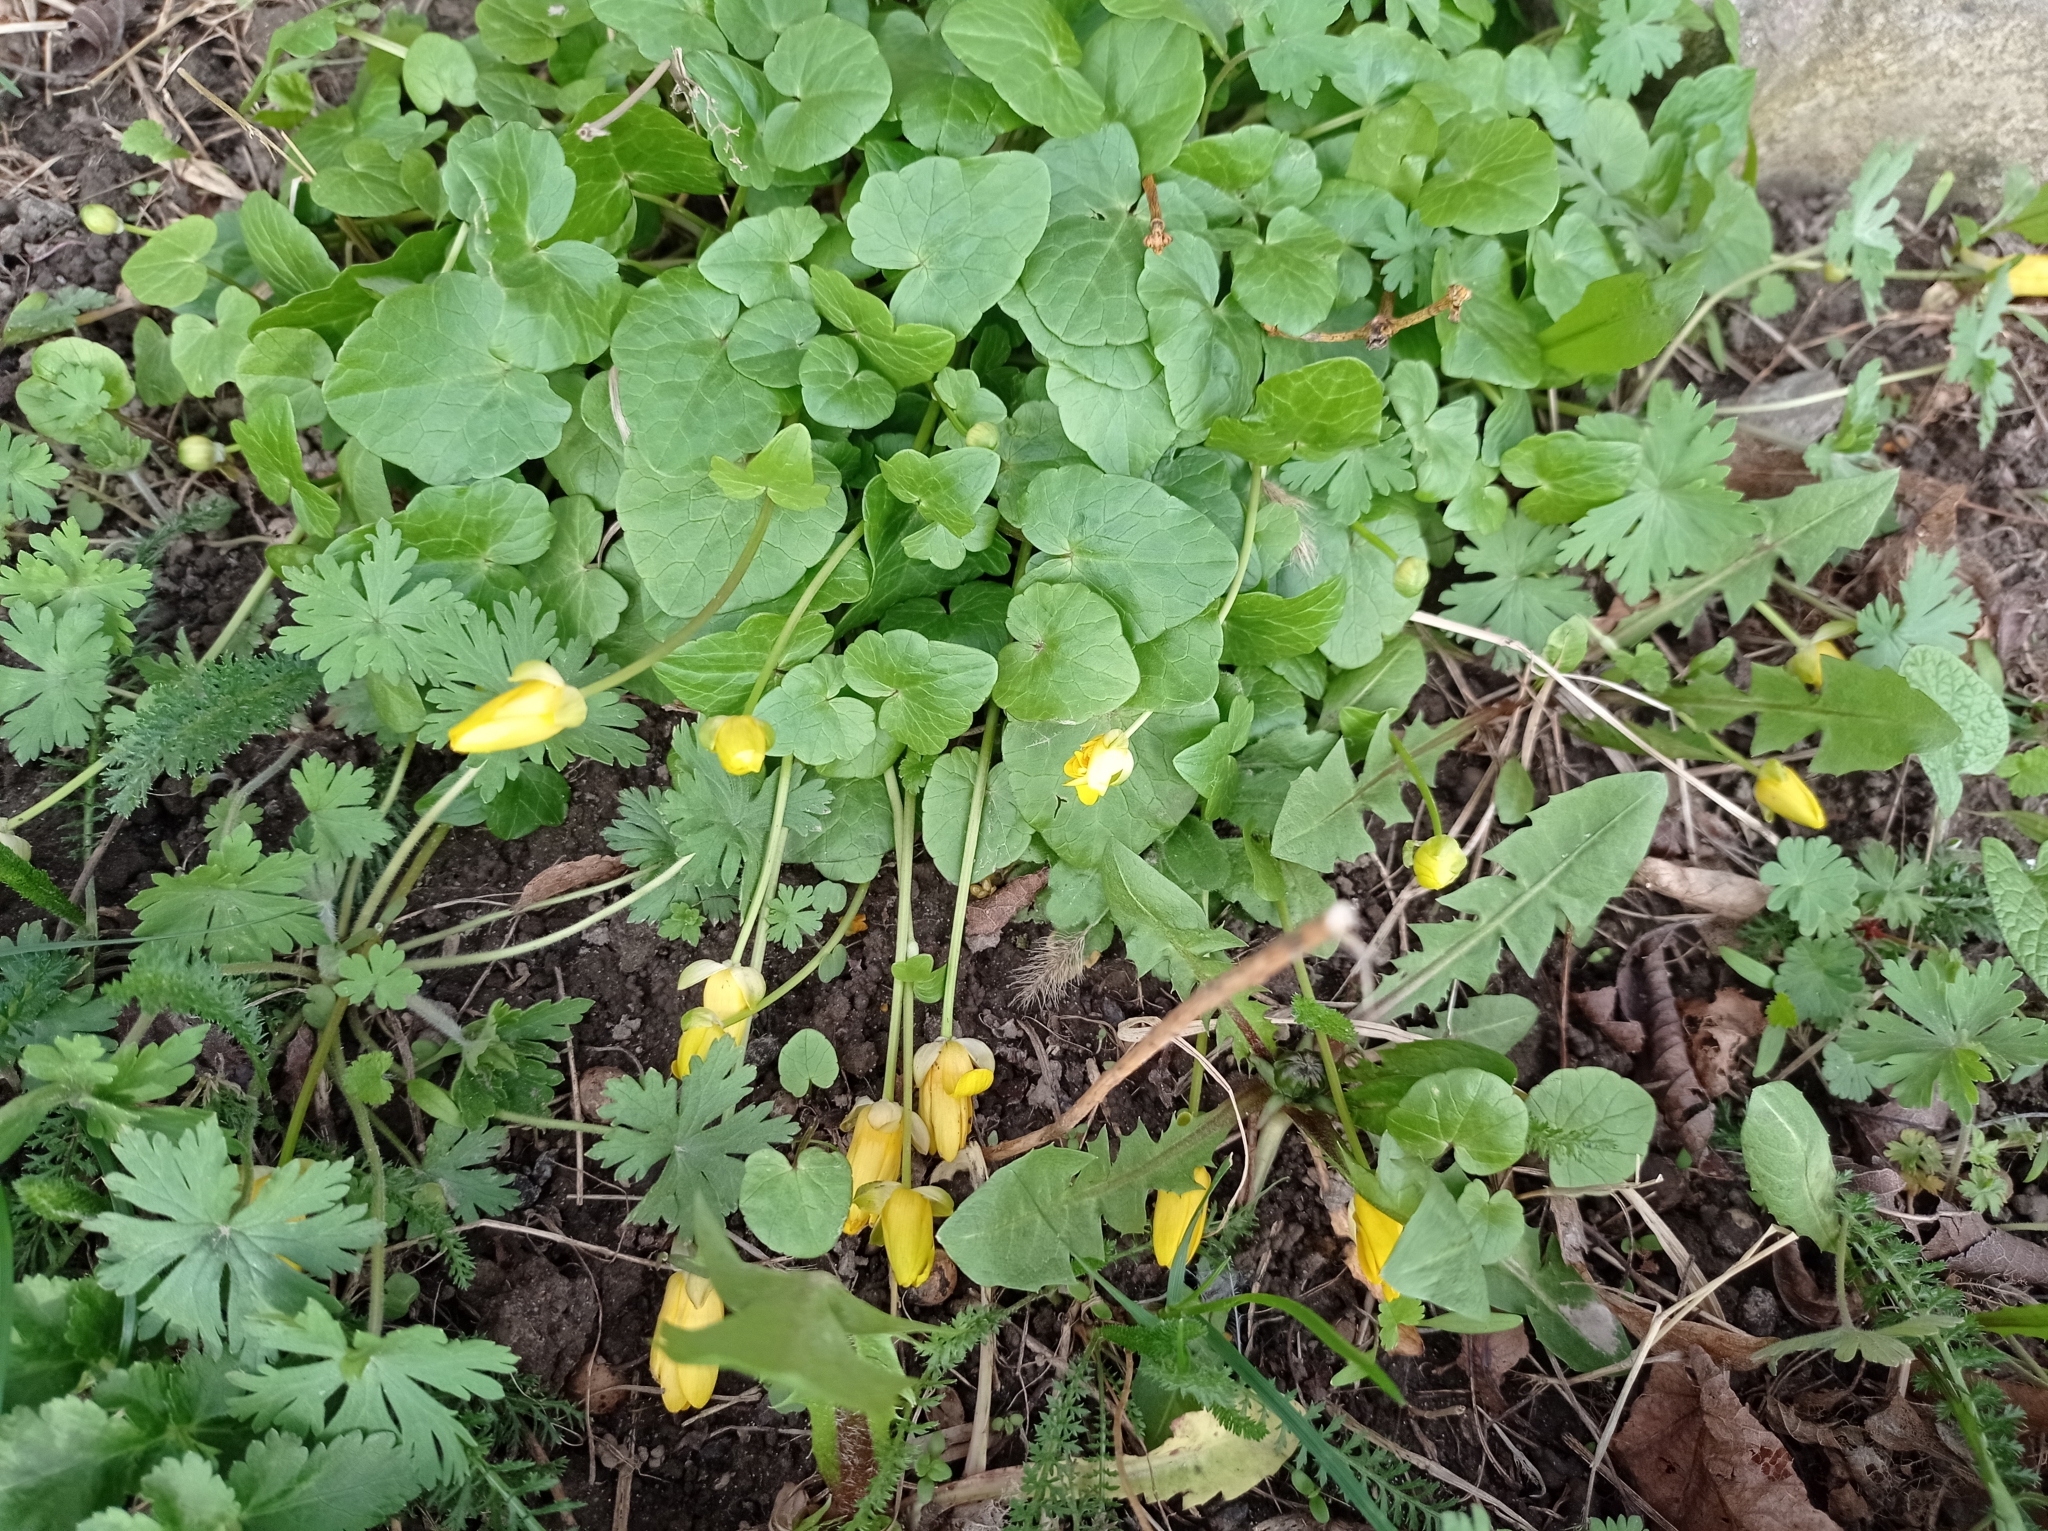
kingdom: Plantae
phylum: Tracheophyta
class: Magnoliopsida
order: Ranunculales
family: Ranunculaceae
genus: Ficaria
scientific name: Ficaria verna
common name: Lesser celandine
